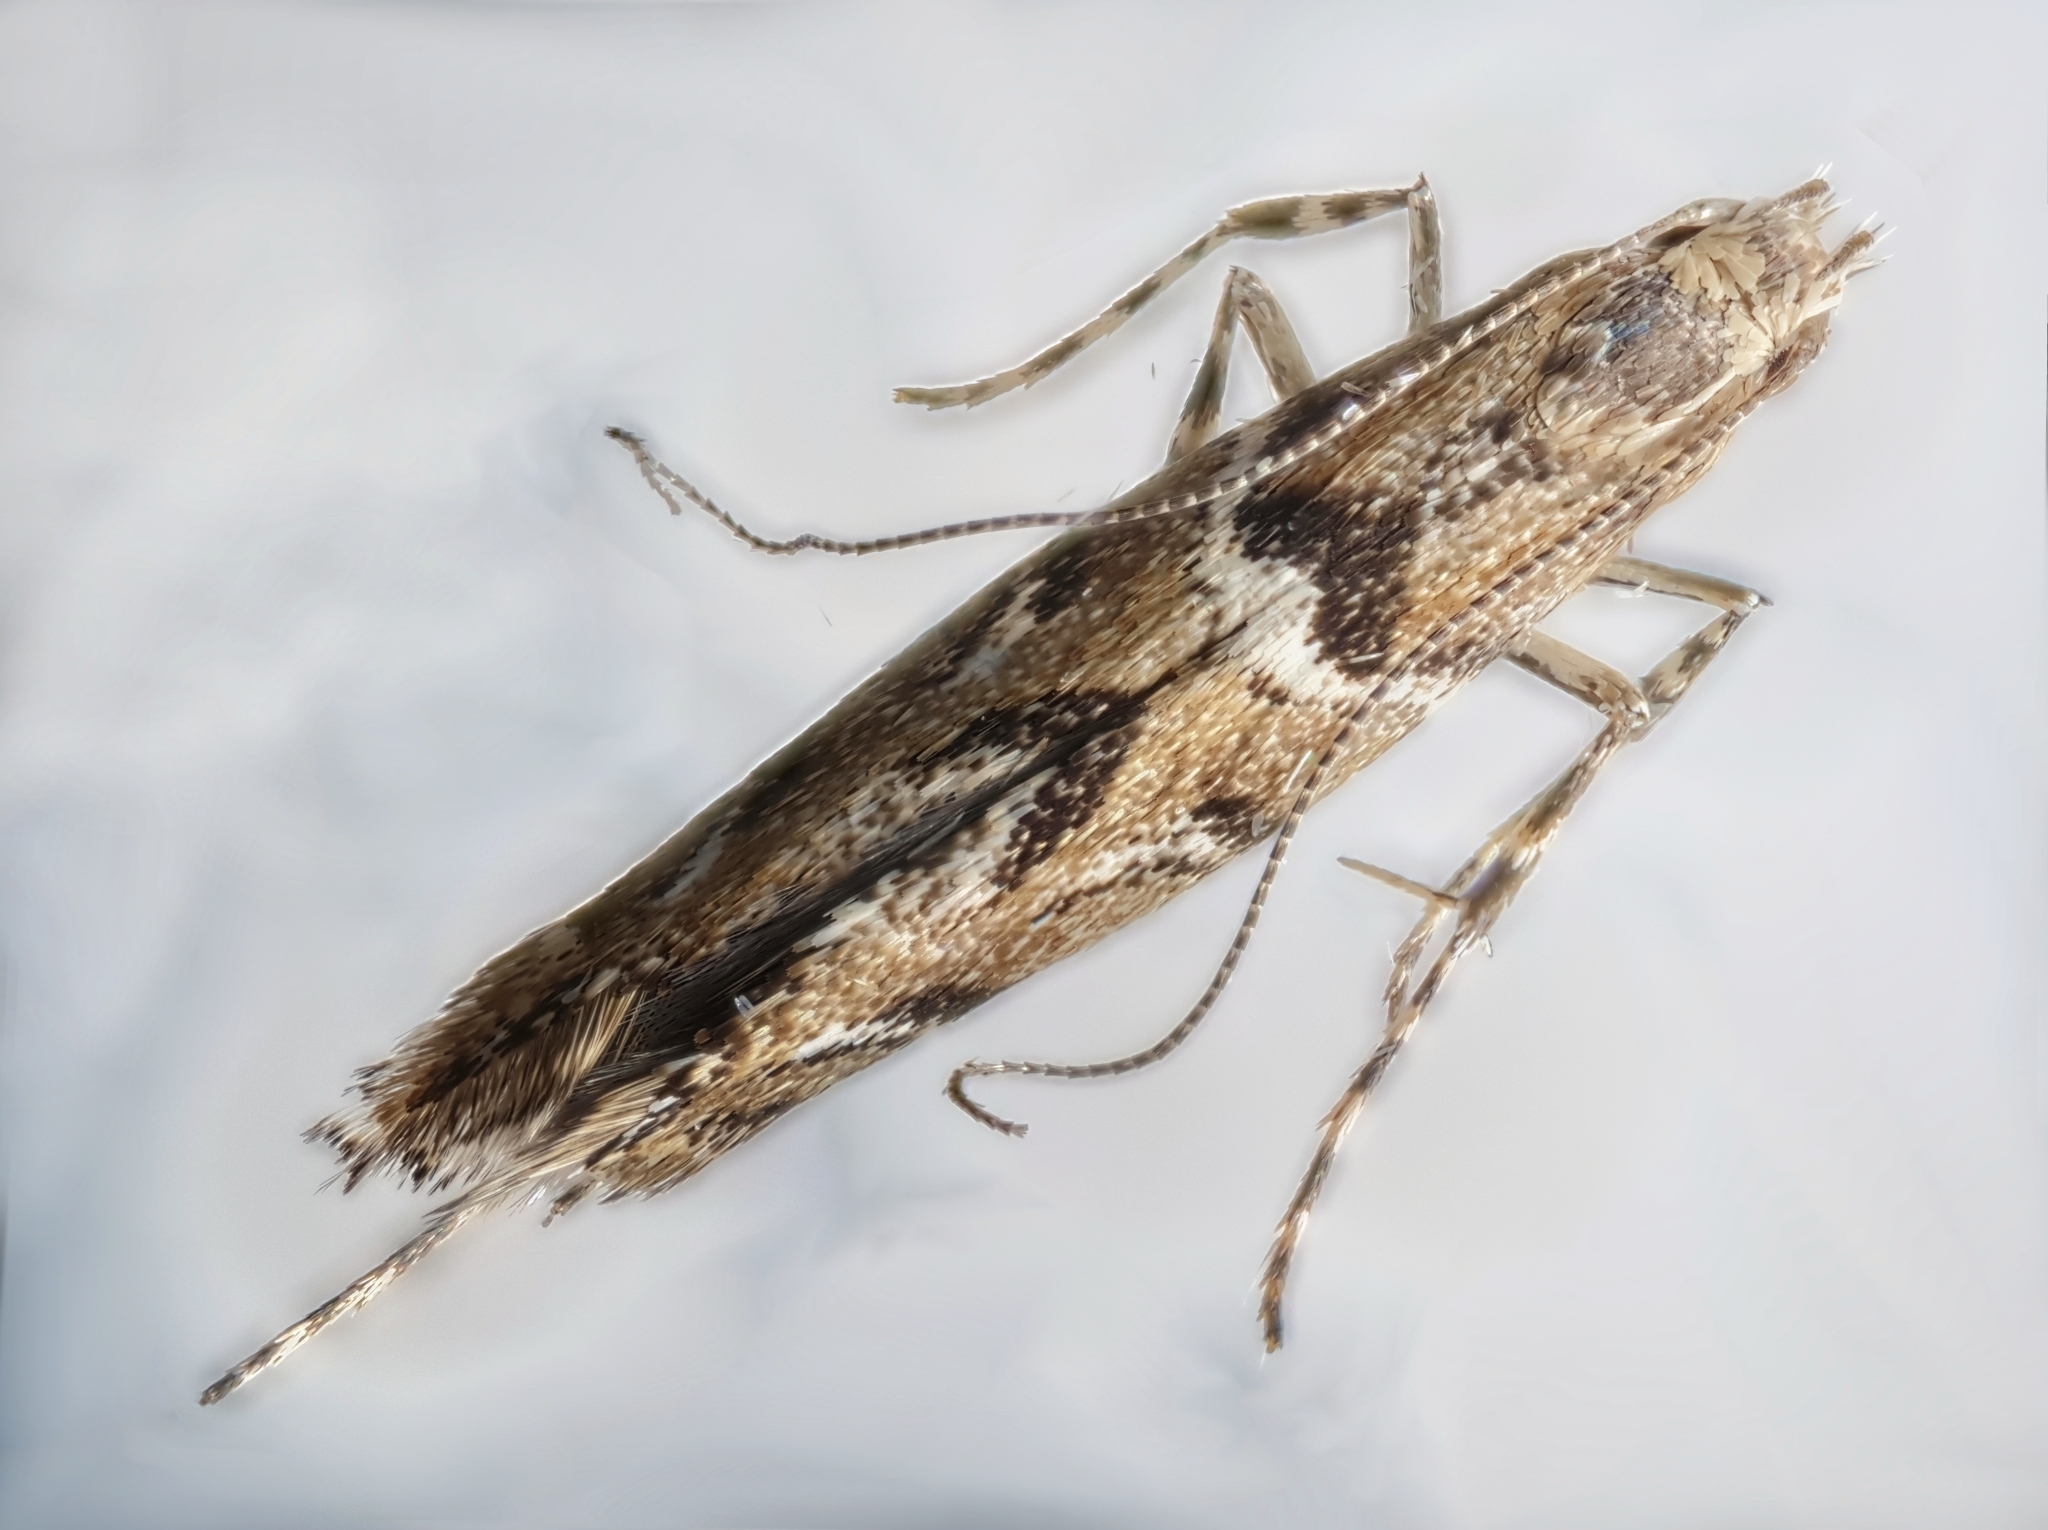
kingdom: Animalia
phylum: Arthropoda
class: Insecta
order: Lepidoptera
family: Gracillariidae
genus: Acrocercops
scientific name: Acrocercops brongniardella
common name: Brown oak slender
